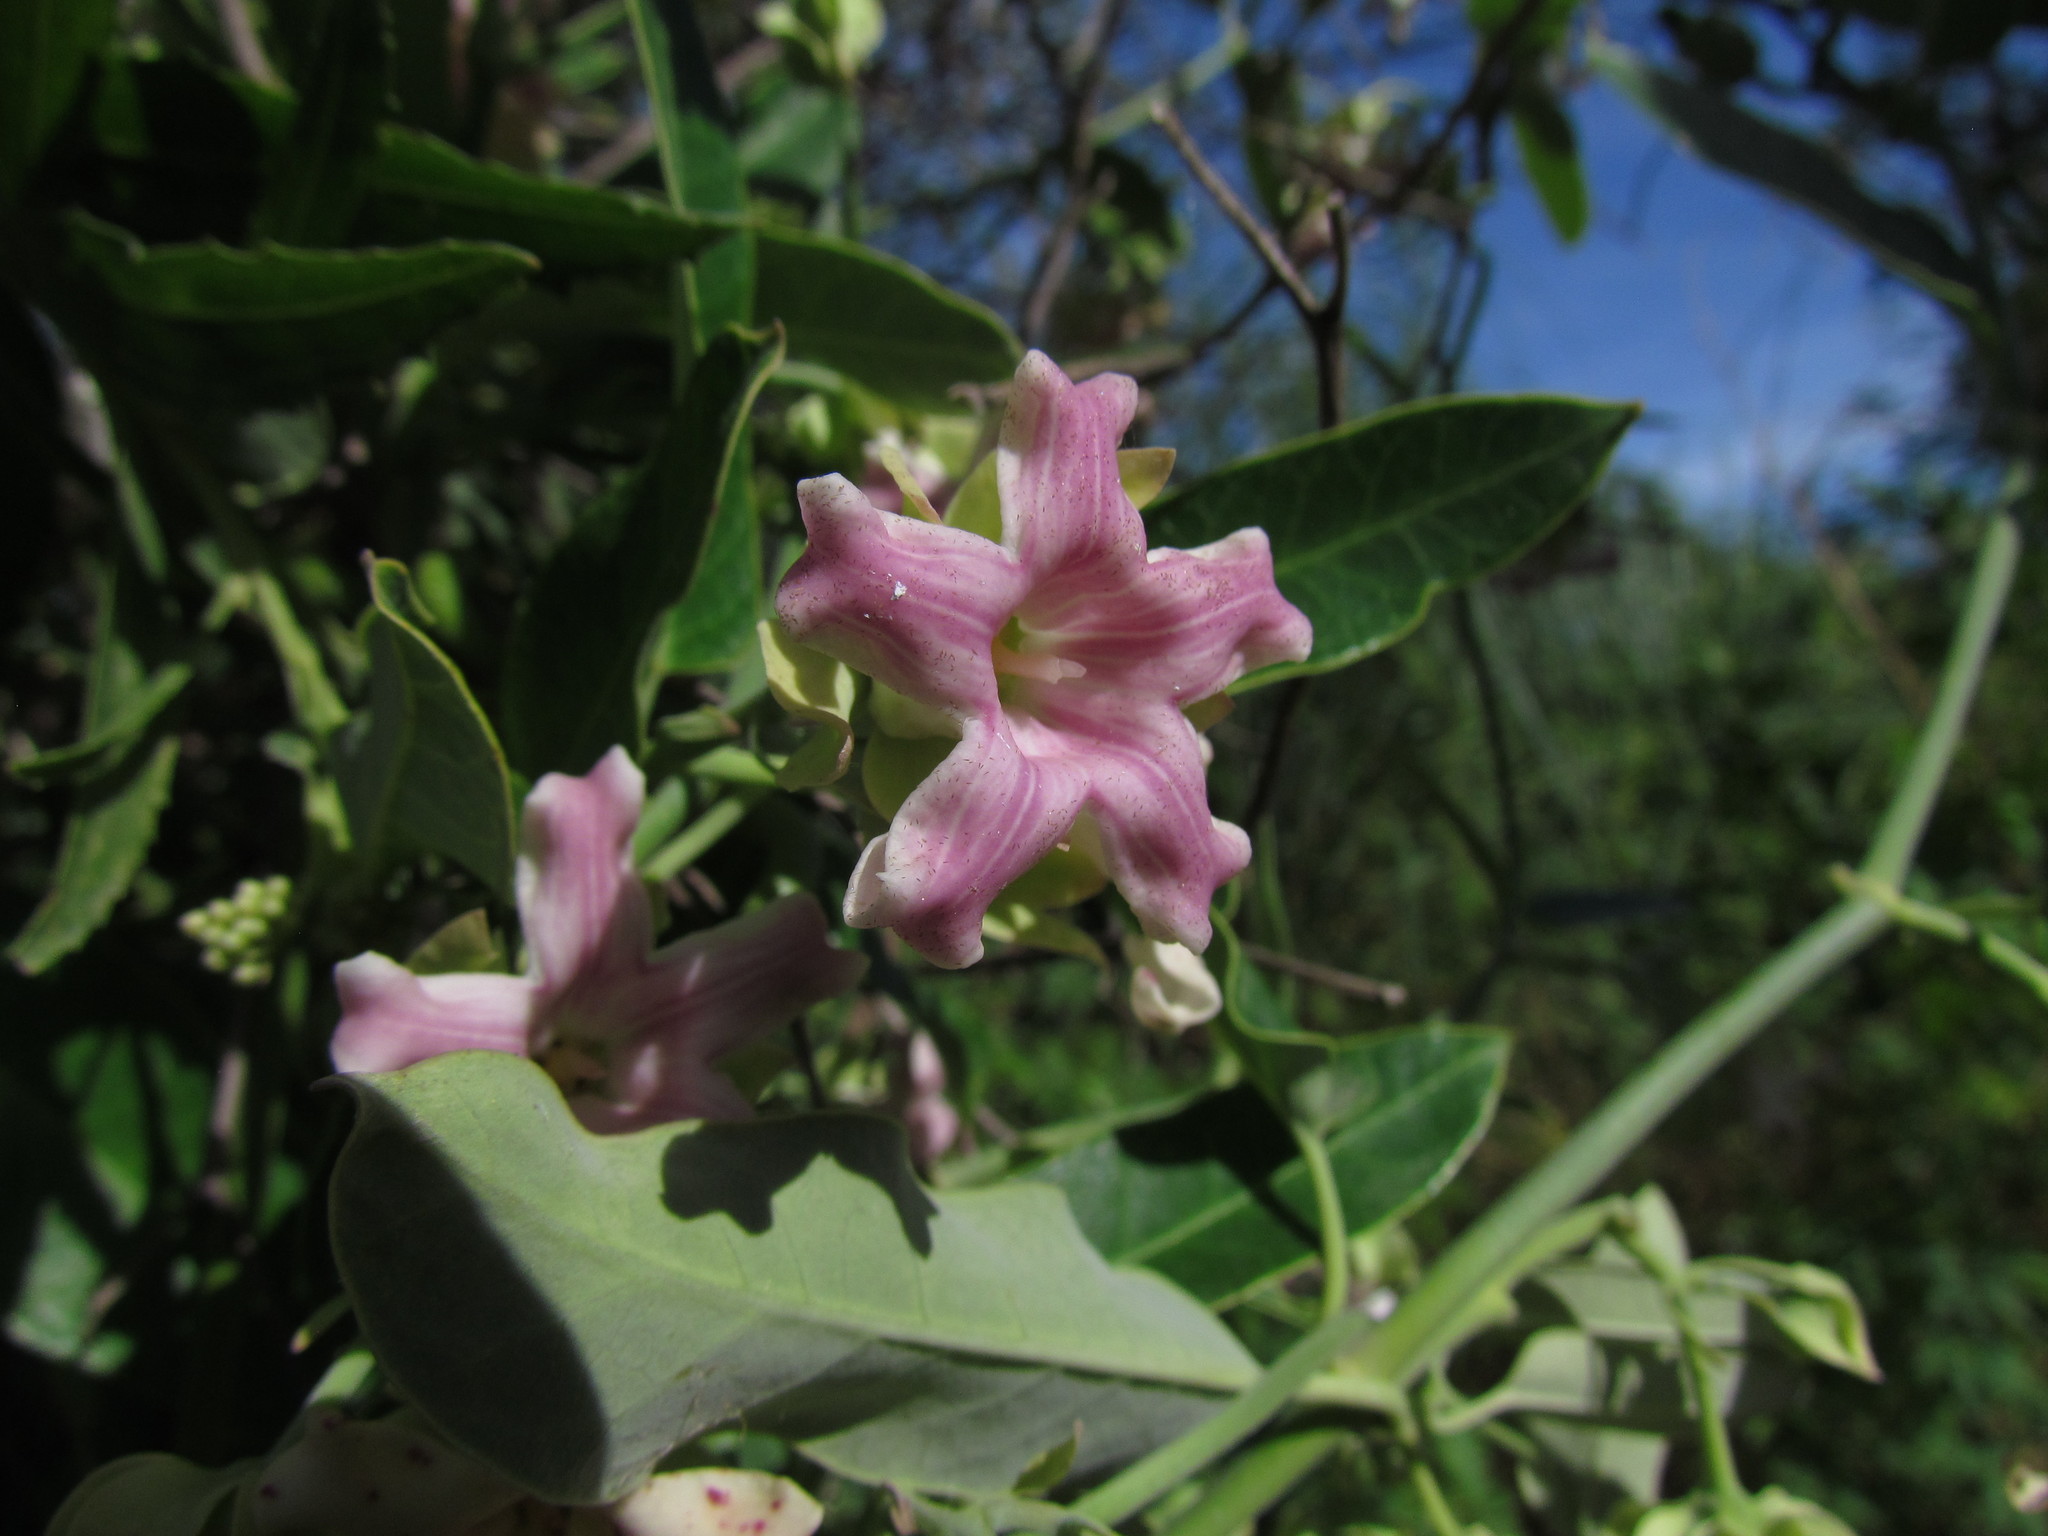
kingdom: Plantae
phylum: Tracheophyta
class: Magnoliopsida
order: Gentianales
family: Apocynaceae
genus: Araujia
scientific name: Araujia sericifera
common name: White bladderflower
